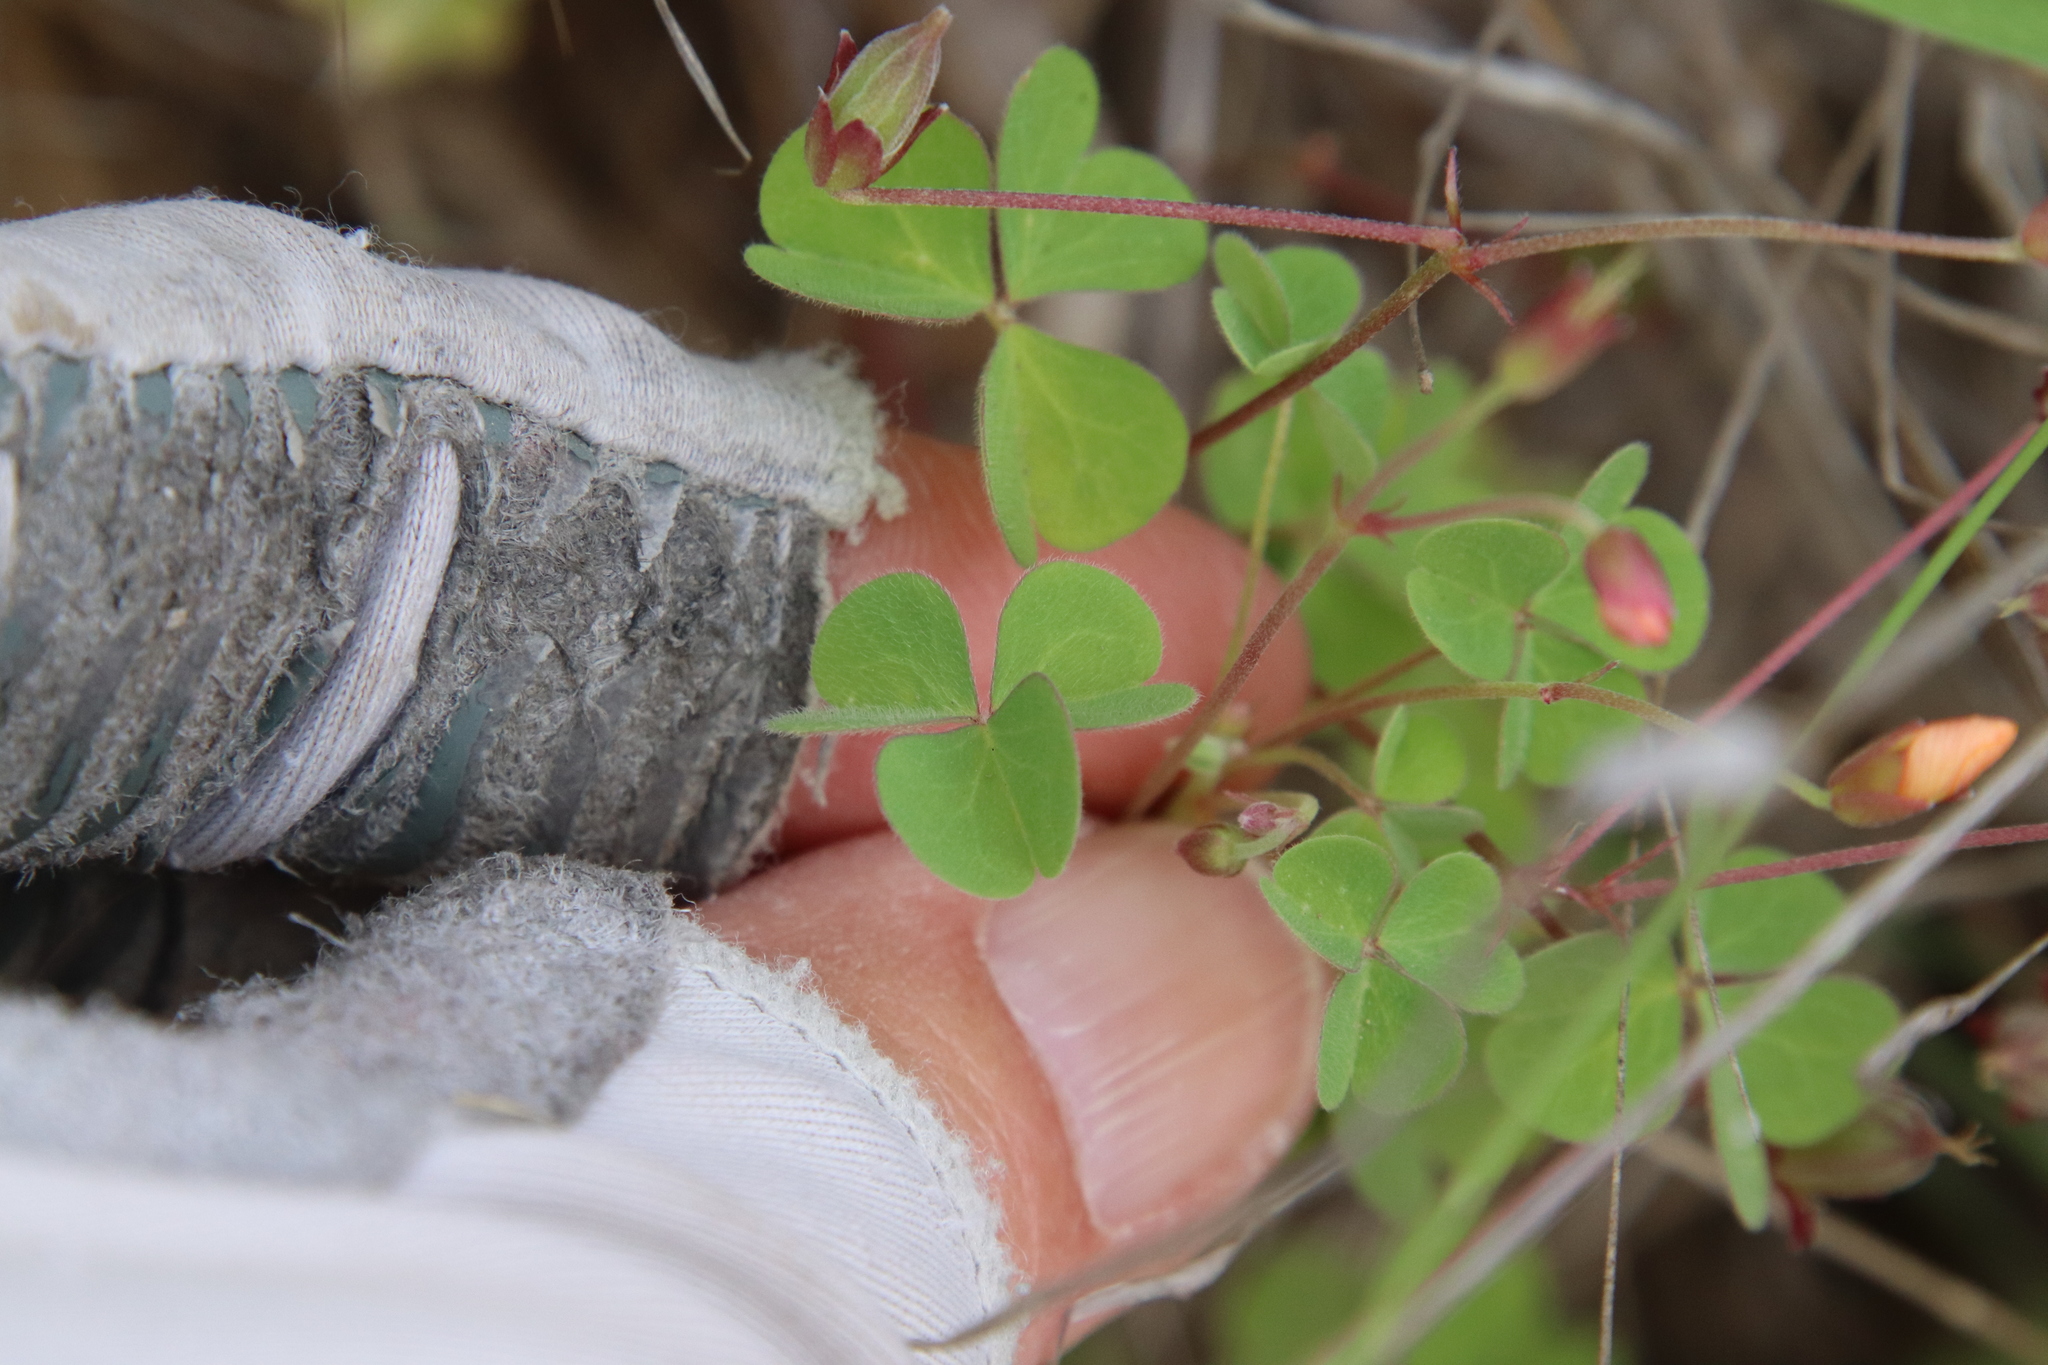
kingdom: Plantae
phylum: Tracheophyta
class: Magnoliopsida
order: Oxalidales
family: Oxalidaceae
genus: Oxalis
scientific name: Oxalis californica
